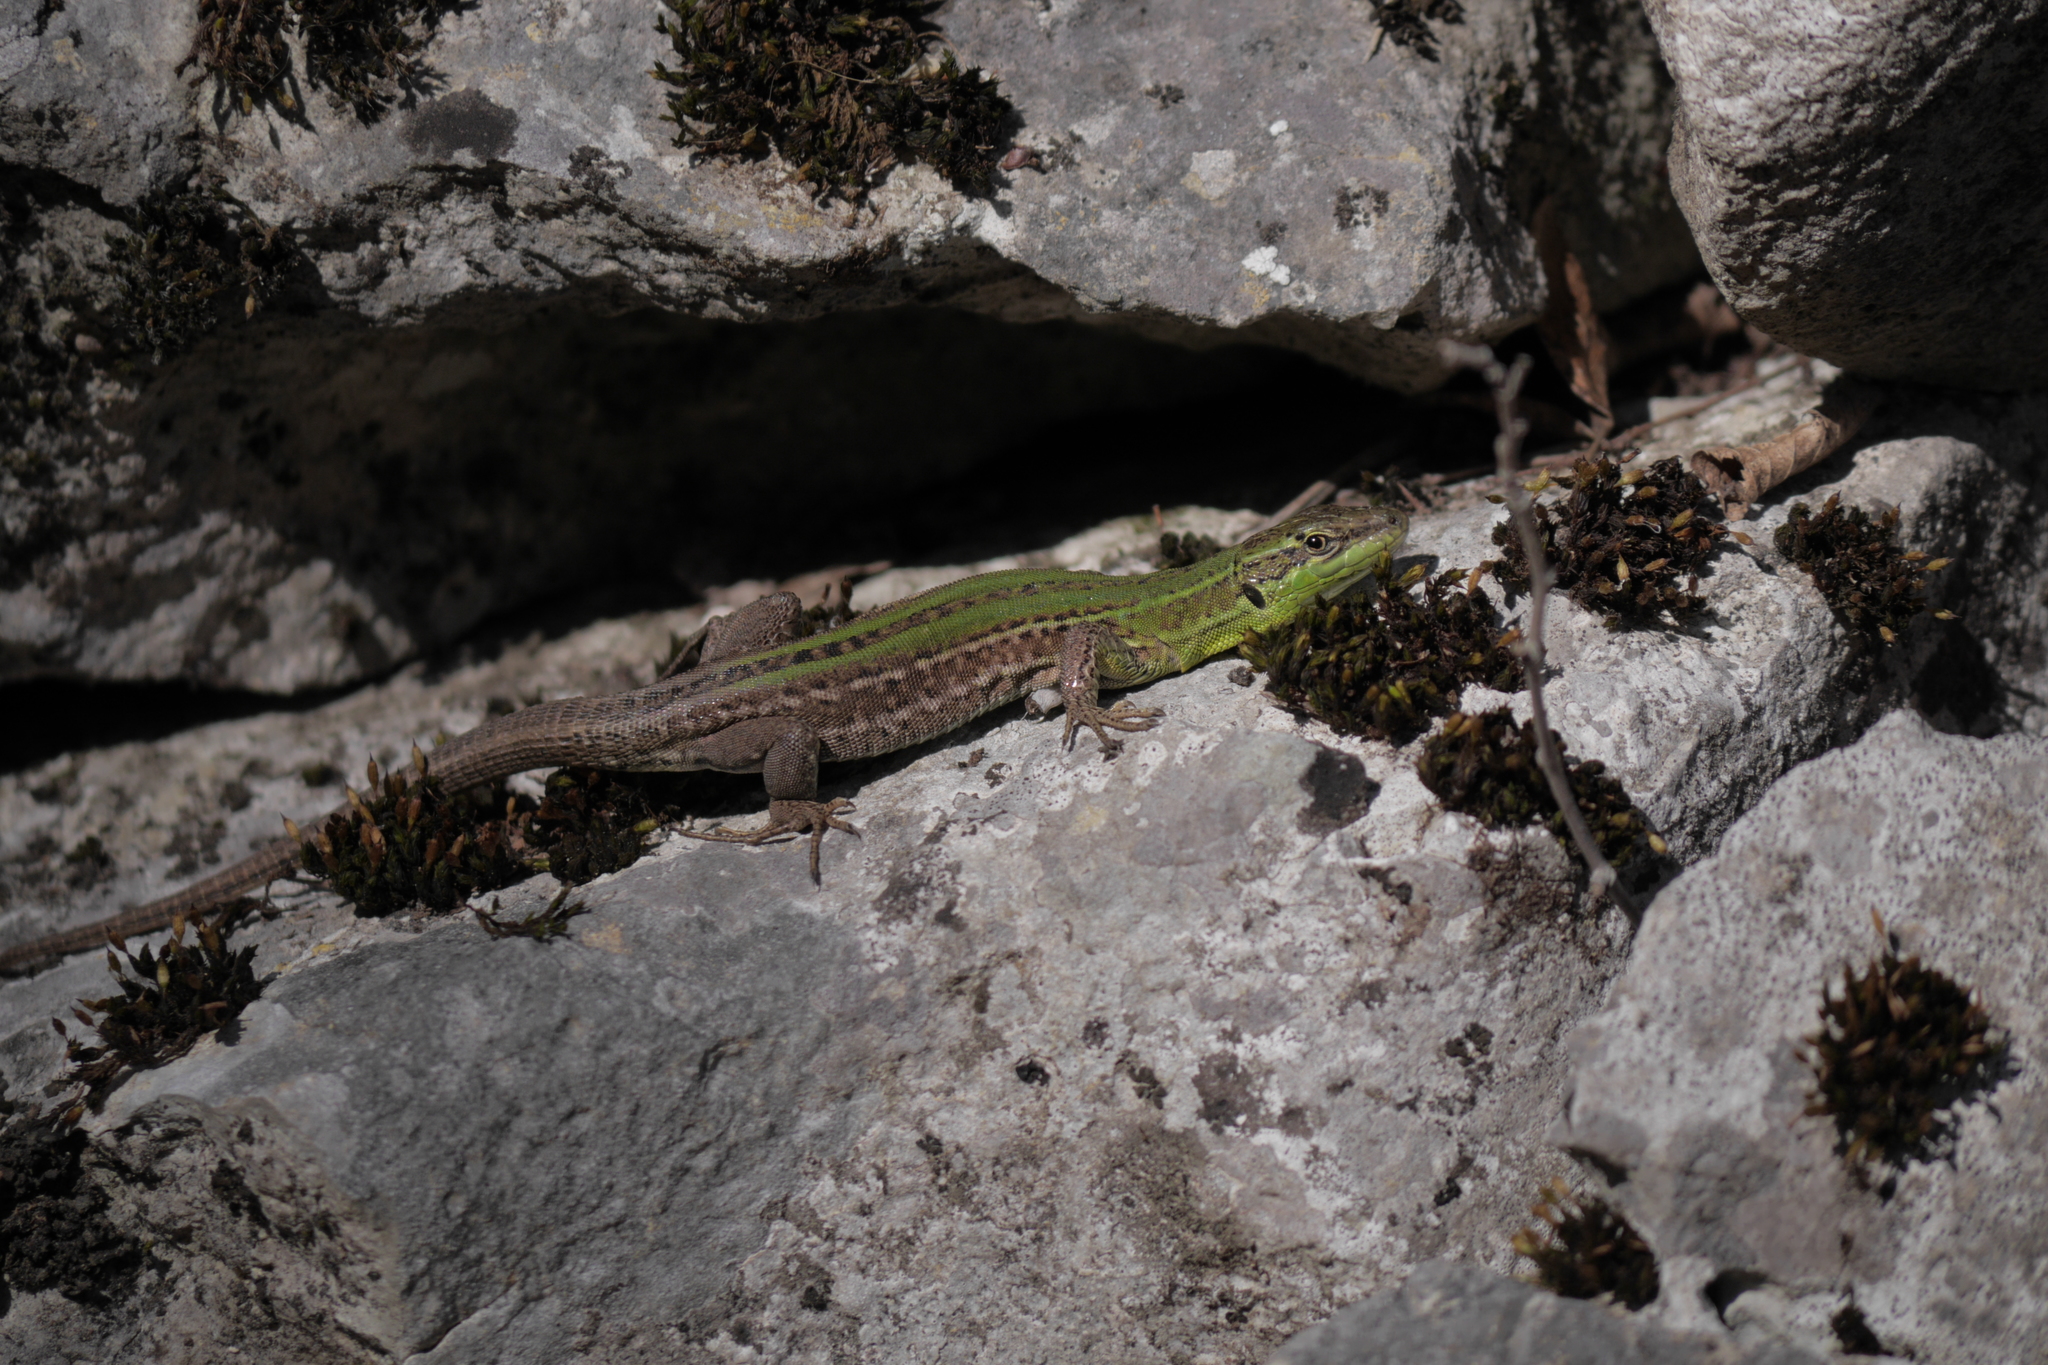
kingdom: Animalia
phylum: Chordata
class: Squamata
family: Lacertidae
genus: Podarcis
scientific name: Podarcis siculus
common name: Italian wall lizard
